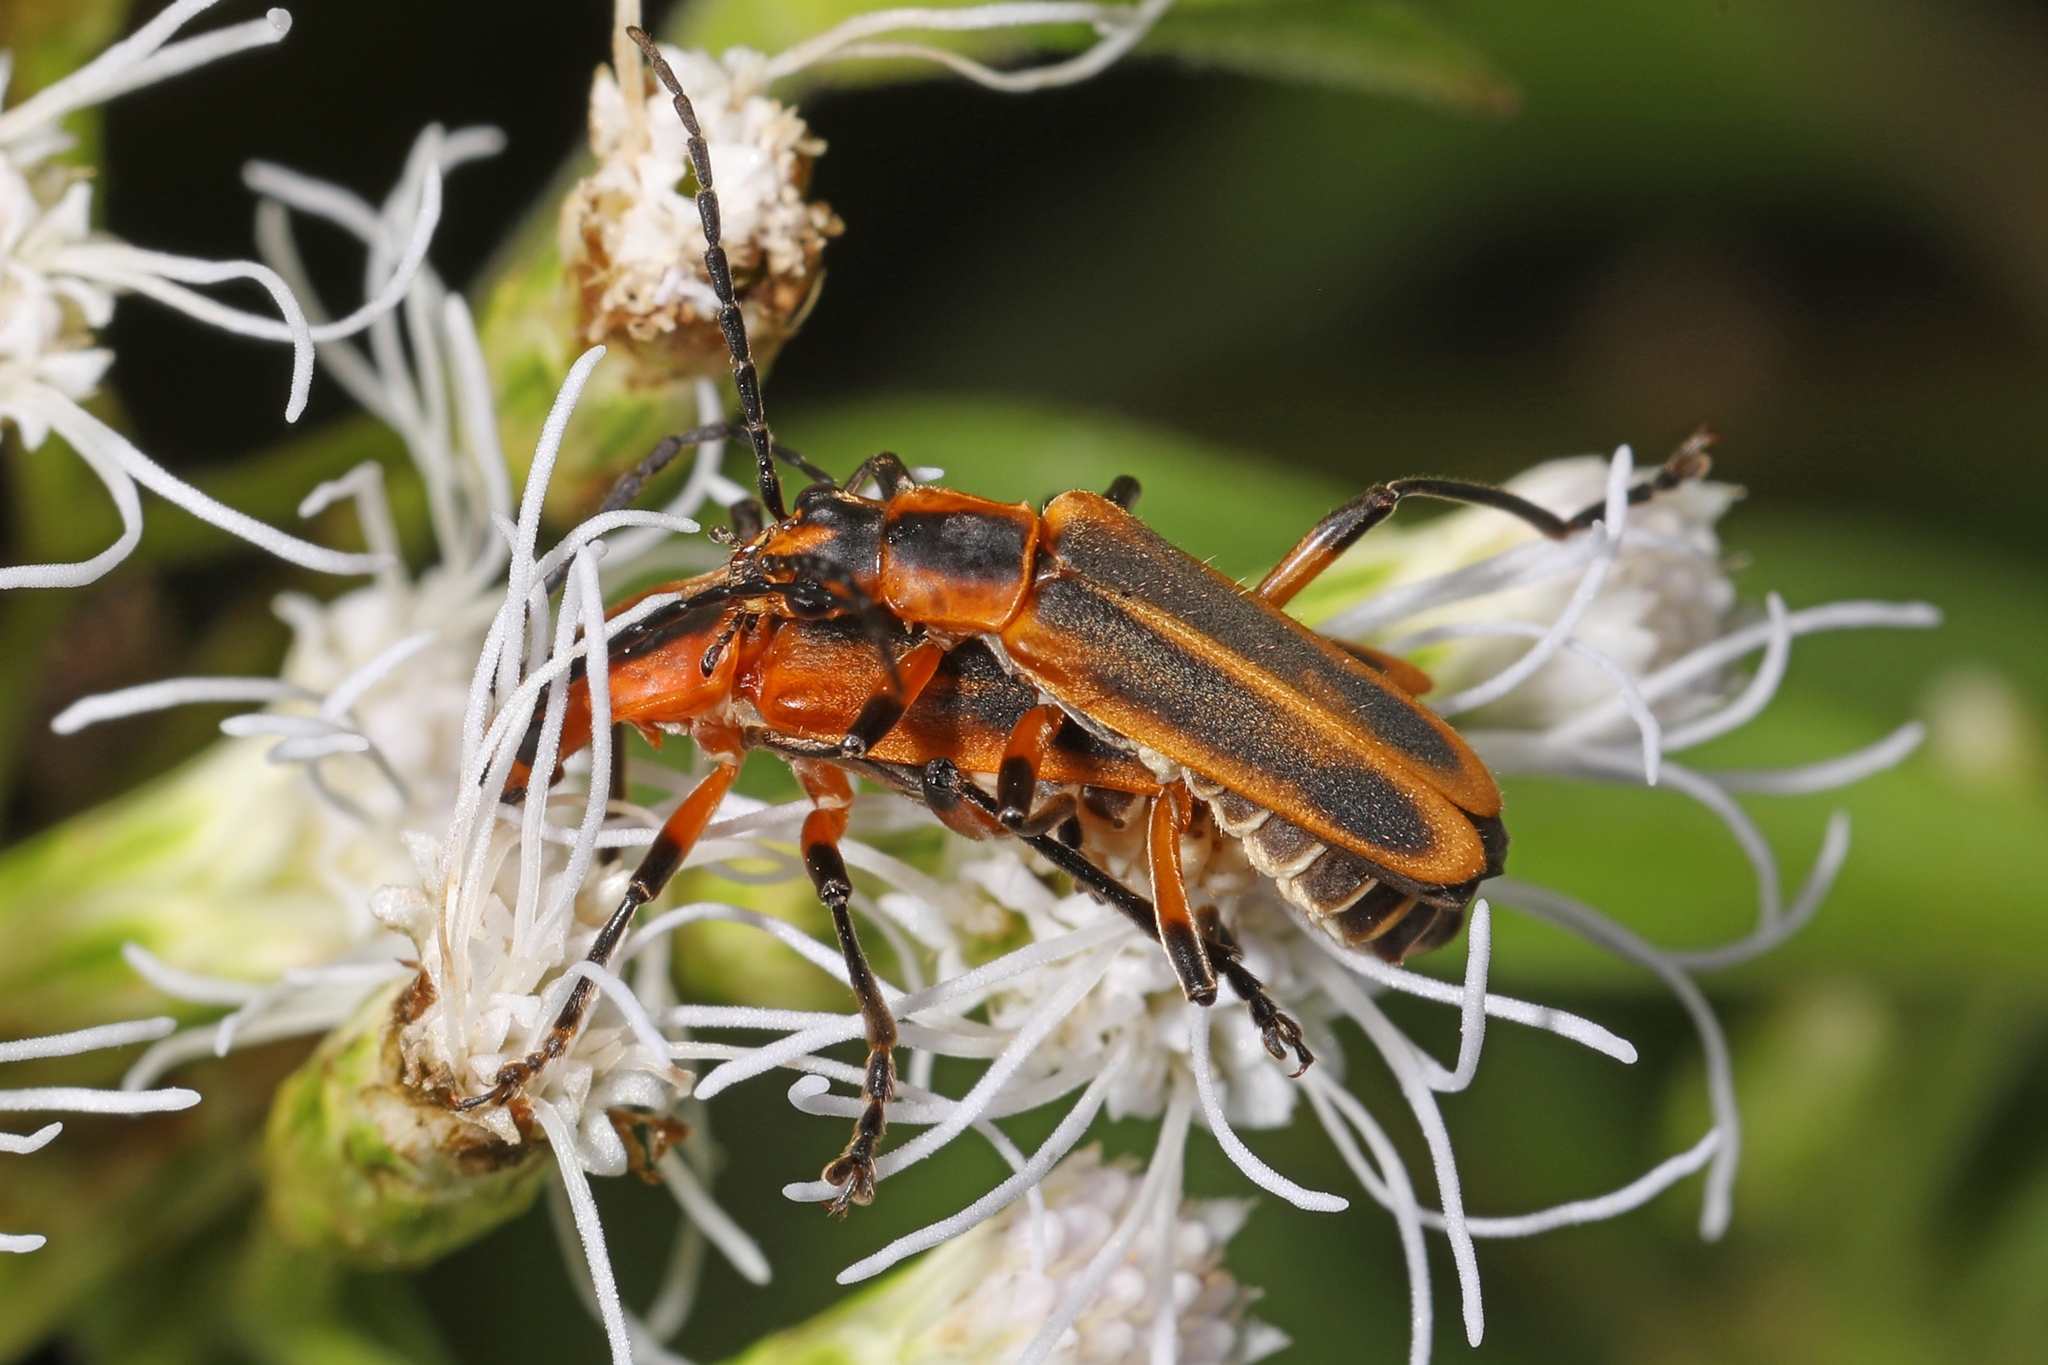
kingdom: Animalia
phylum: Arthropoda
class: Insecta
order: Coleoptera
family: Cantharidae
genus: Chauliognathus
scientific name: Chauliognathus marginatus
